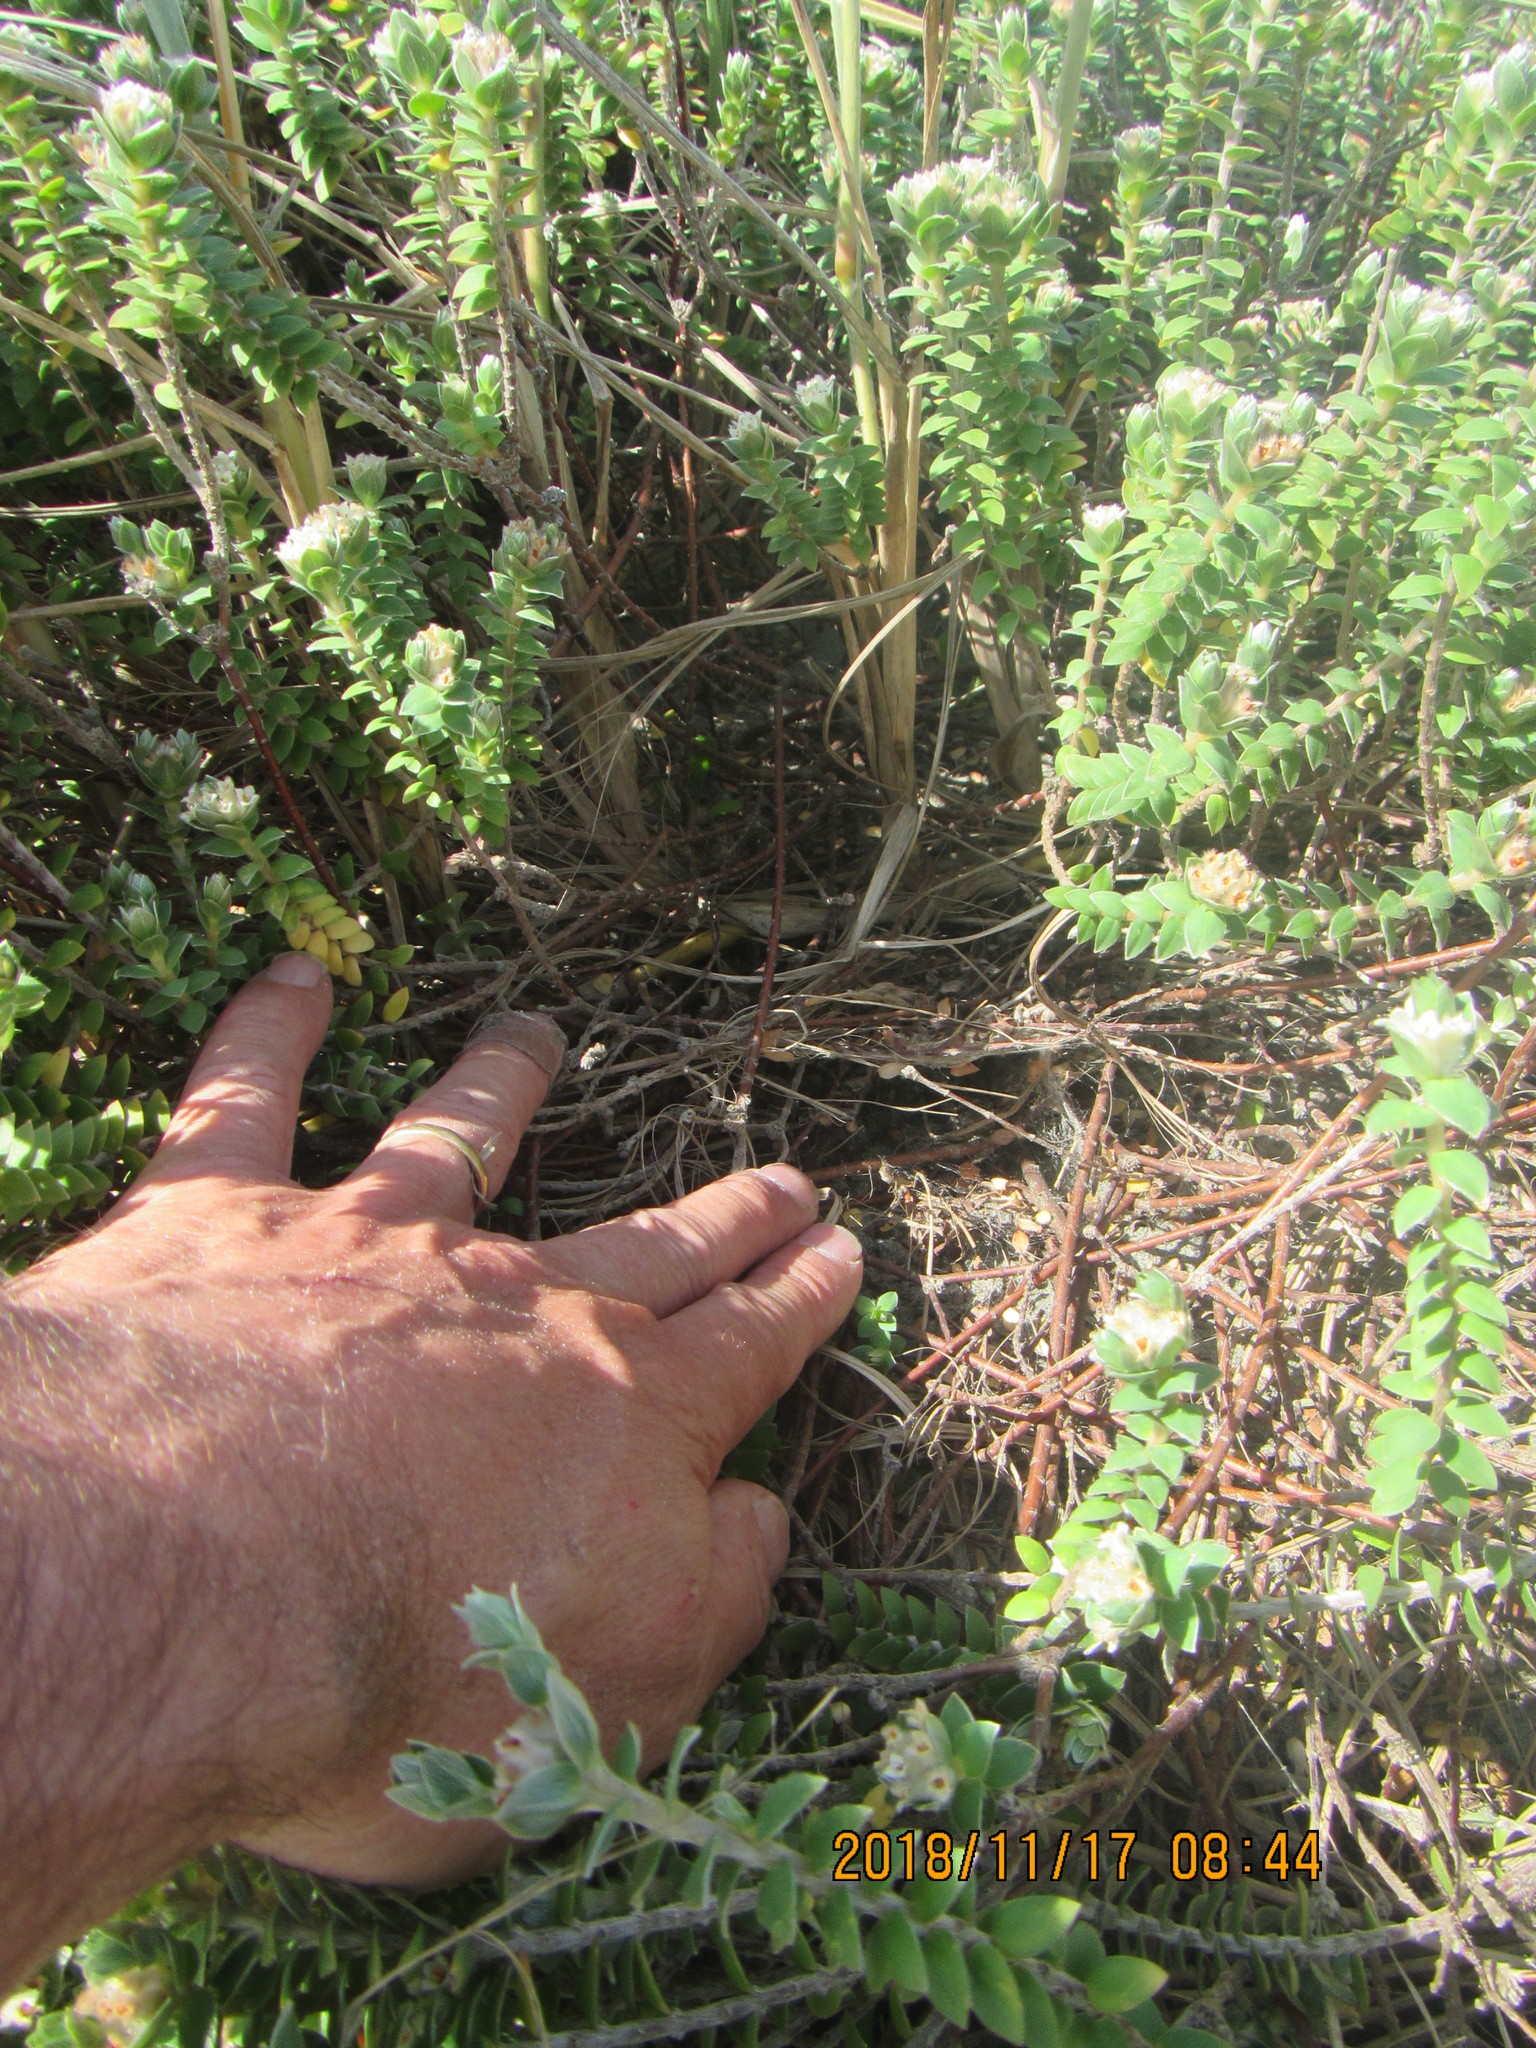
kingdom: Animalia
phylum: Arthropoda
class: Arachnida
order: Araneae
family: Theridiidae
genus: Latrodectus
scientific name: Latrodectus katipo
